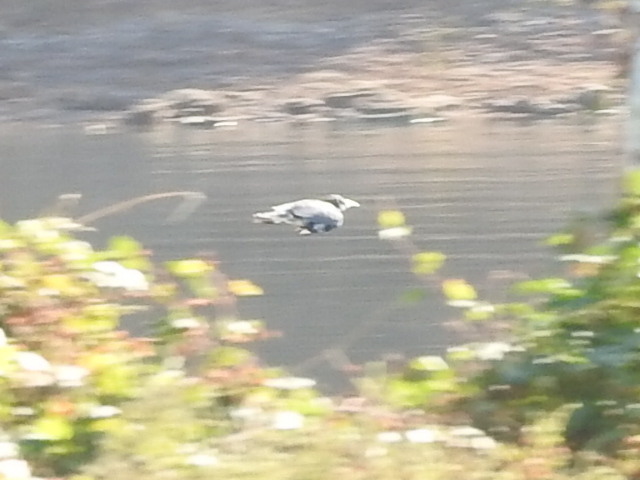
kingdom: Animalia
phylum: Chordata
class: Aves
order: Coraciiformes
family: Alcedinidae
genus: Megaceryle
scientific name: Megaceryle alcyon
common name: Belted kingfisher
